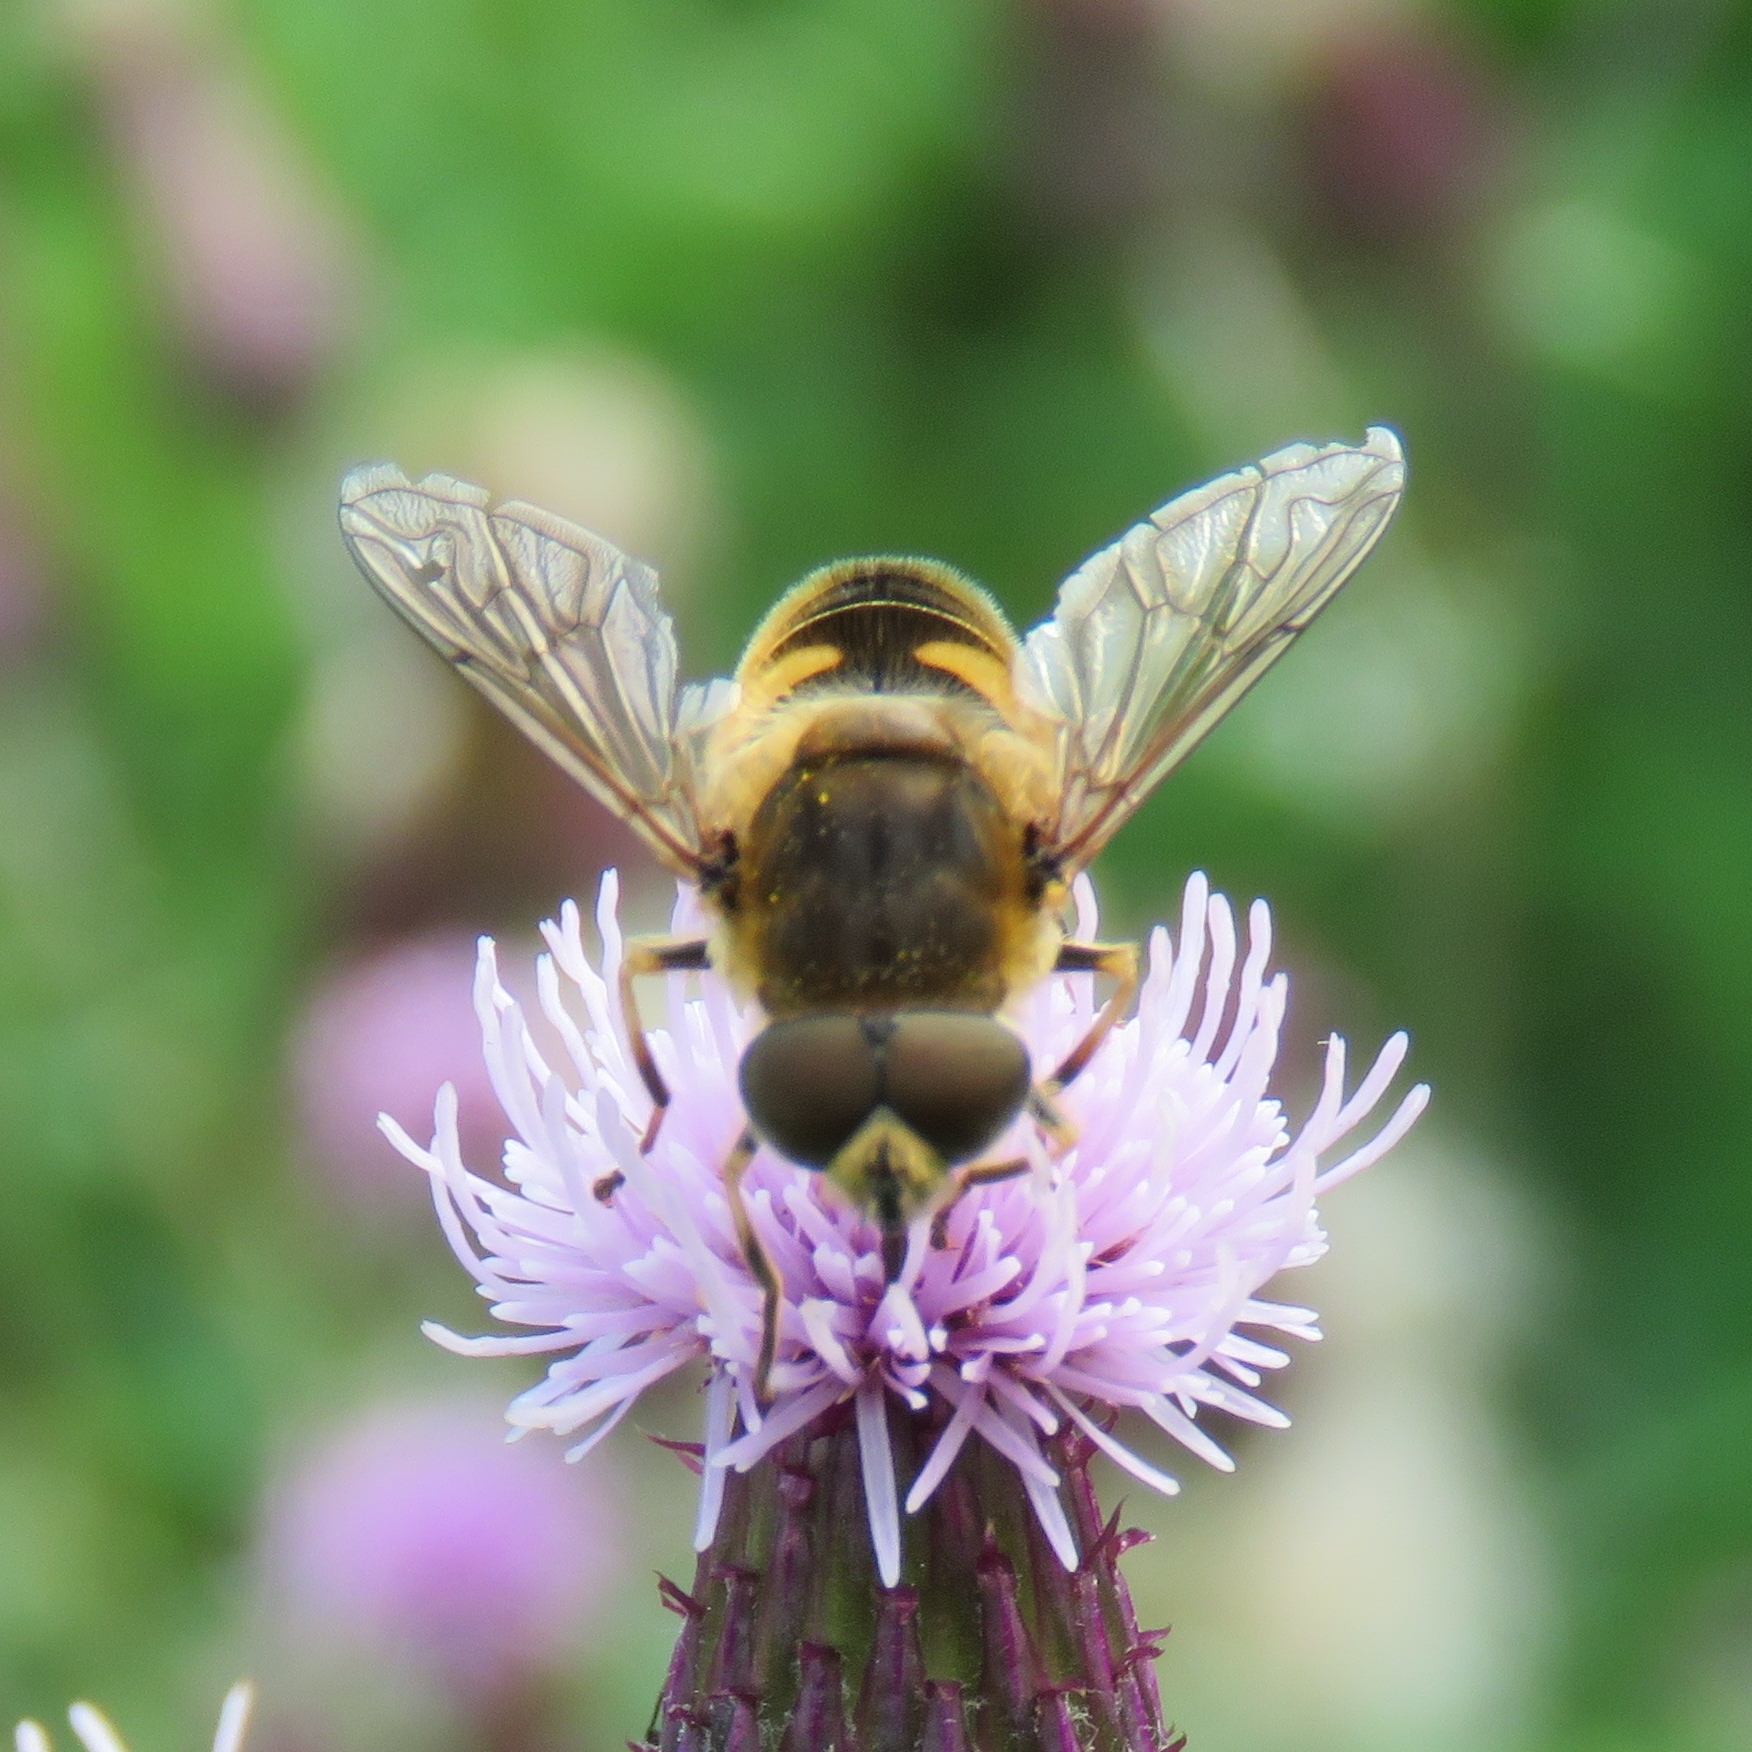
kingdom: Animalia
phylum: Arthropoda
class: Insecta
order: Diptera
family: Syrphidae
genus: Eristalis
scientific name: Eristalis nemorum
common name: Orange-spined drone fly
